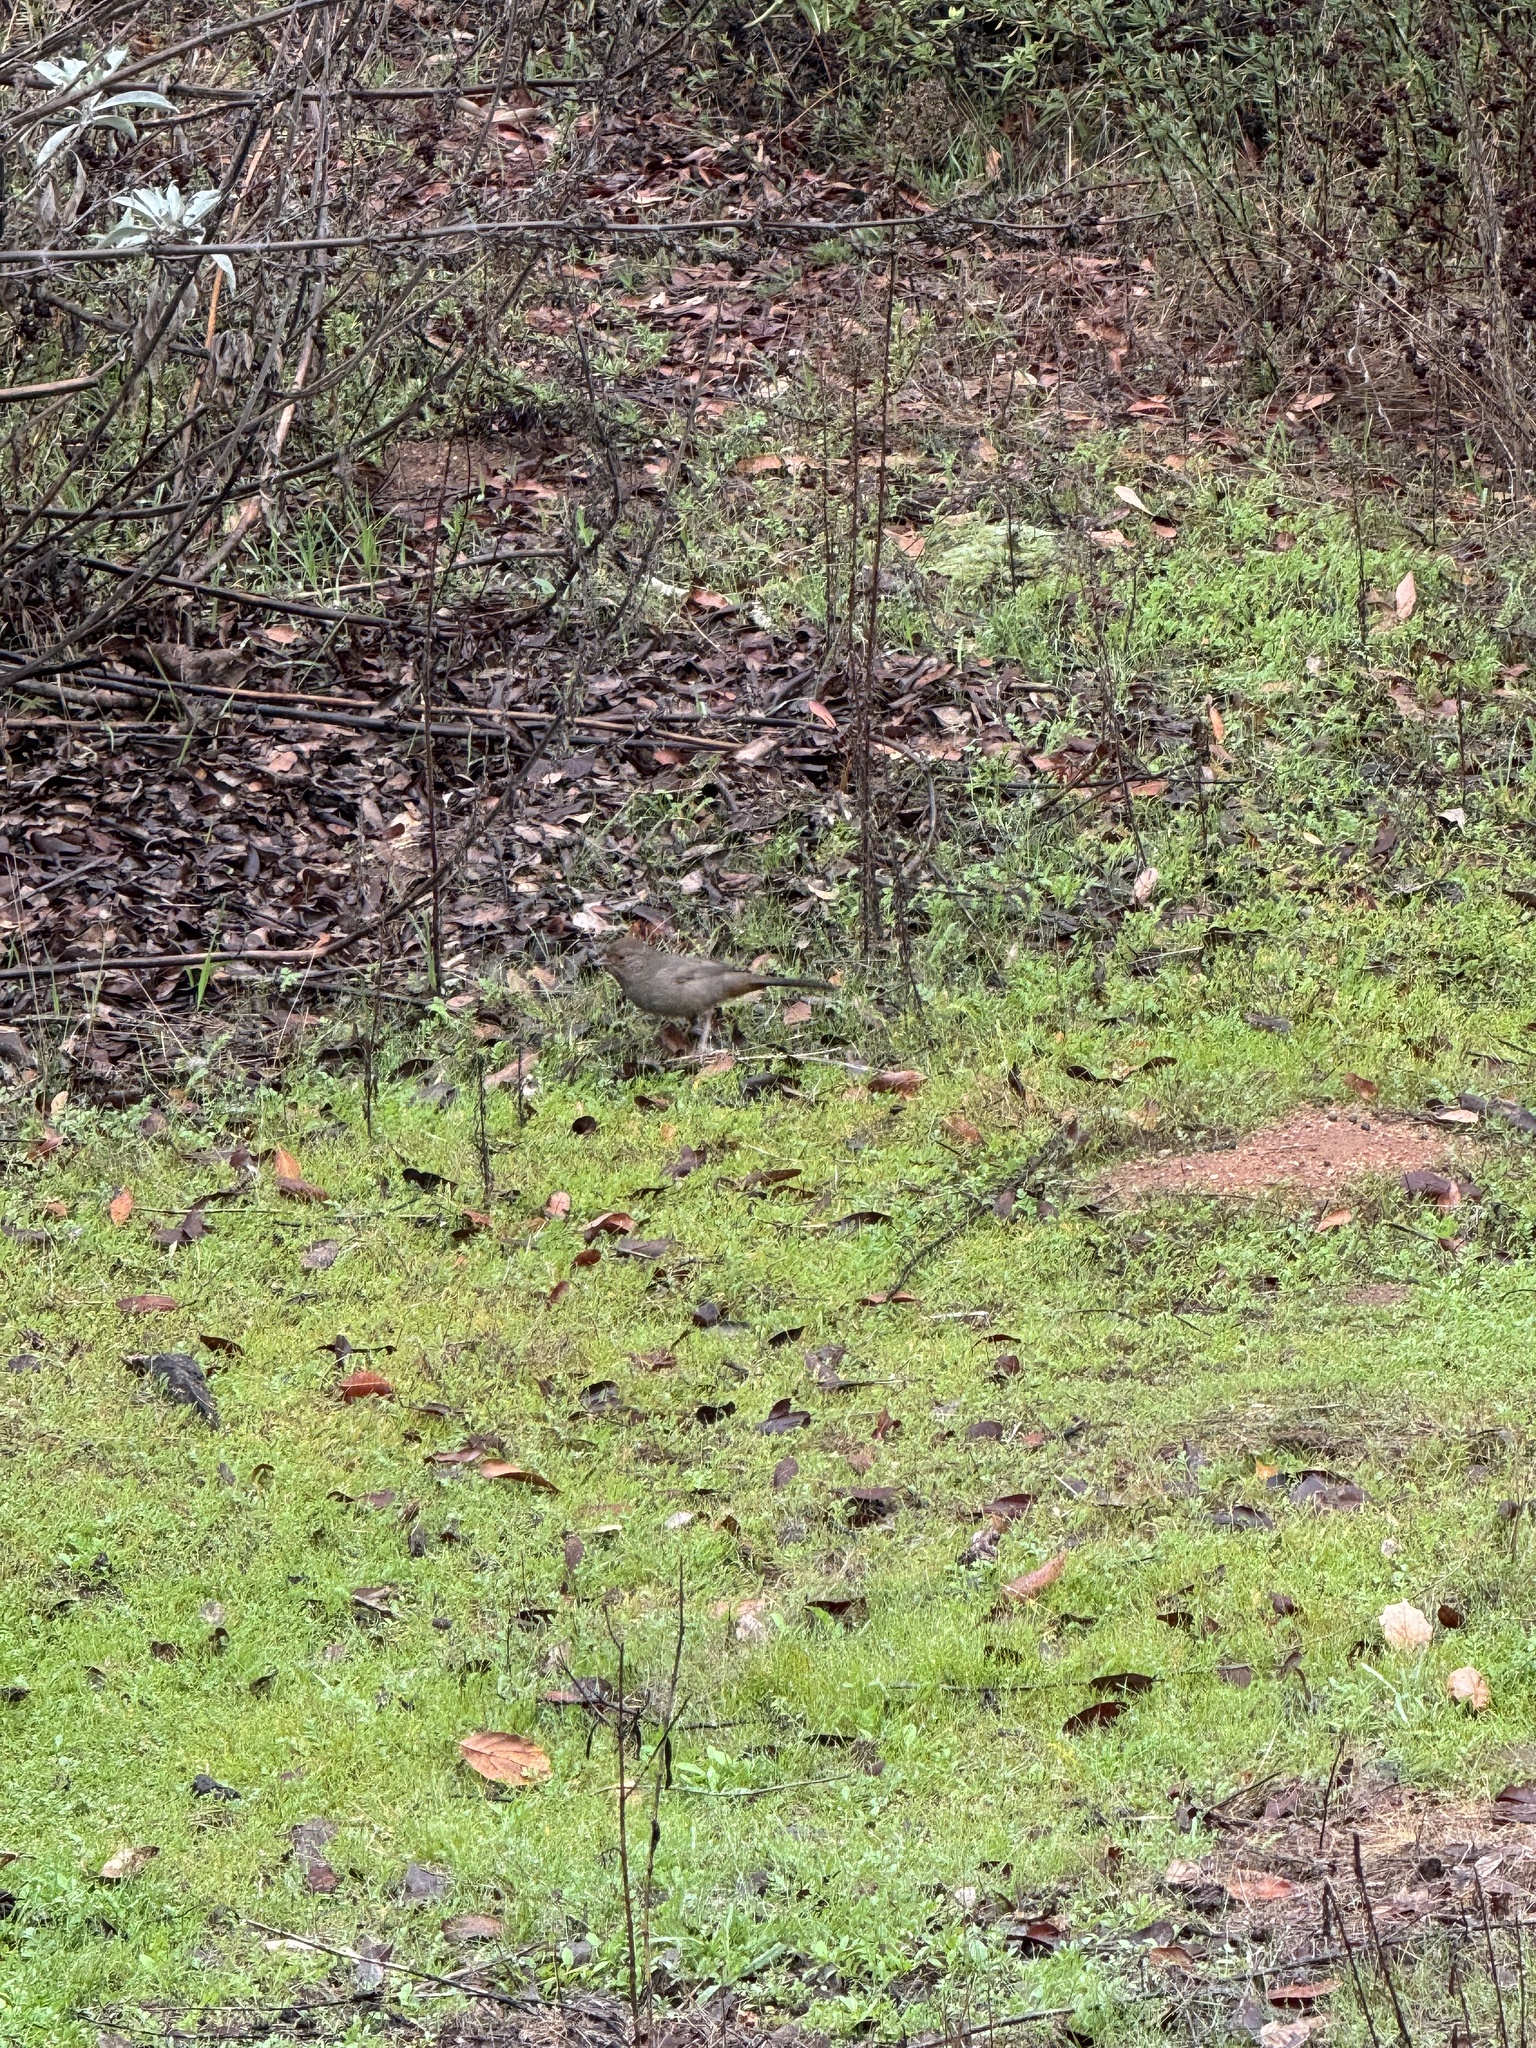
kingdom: Animalia
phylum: Chordata
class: Aves
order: Passeriformes
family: Passerellidae
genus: Melozone
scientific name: Melozone crissalis
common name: California towhee
